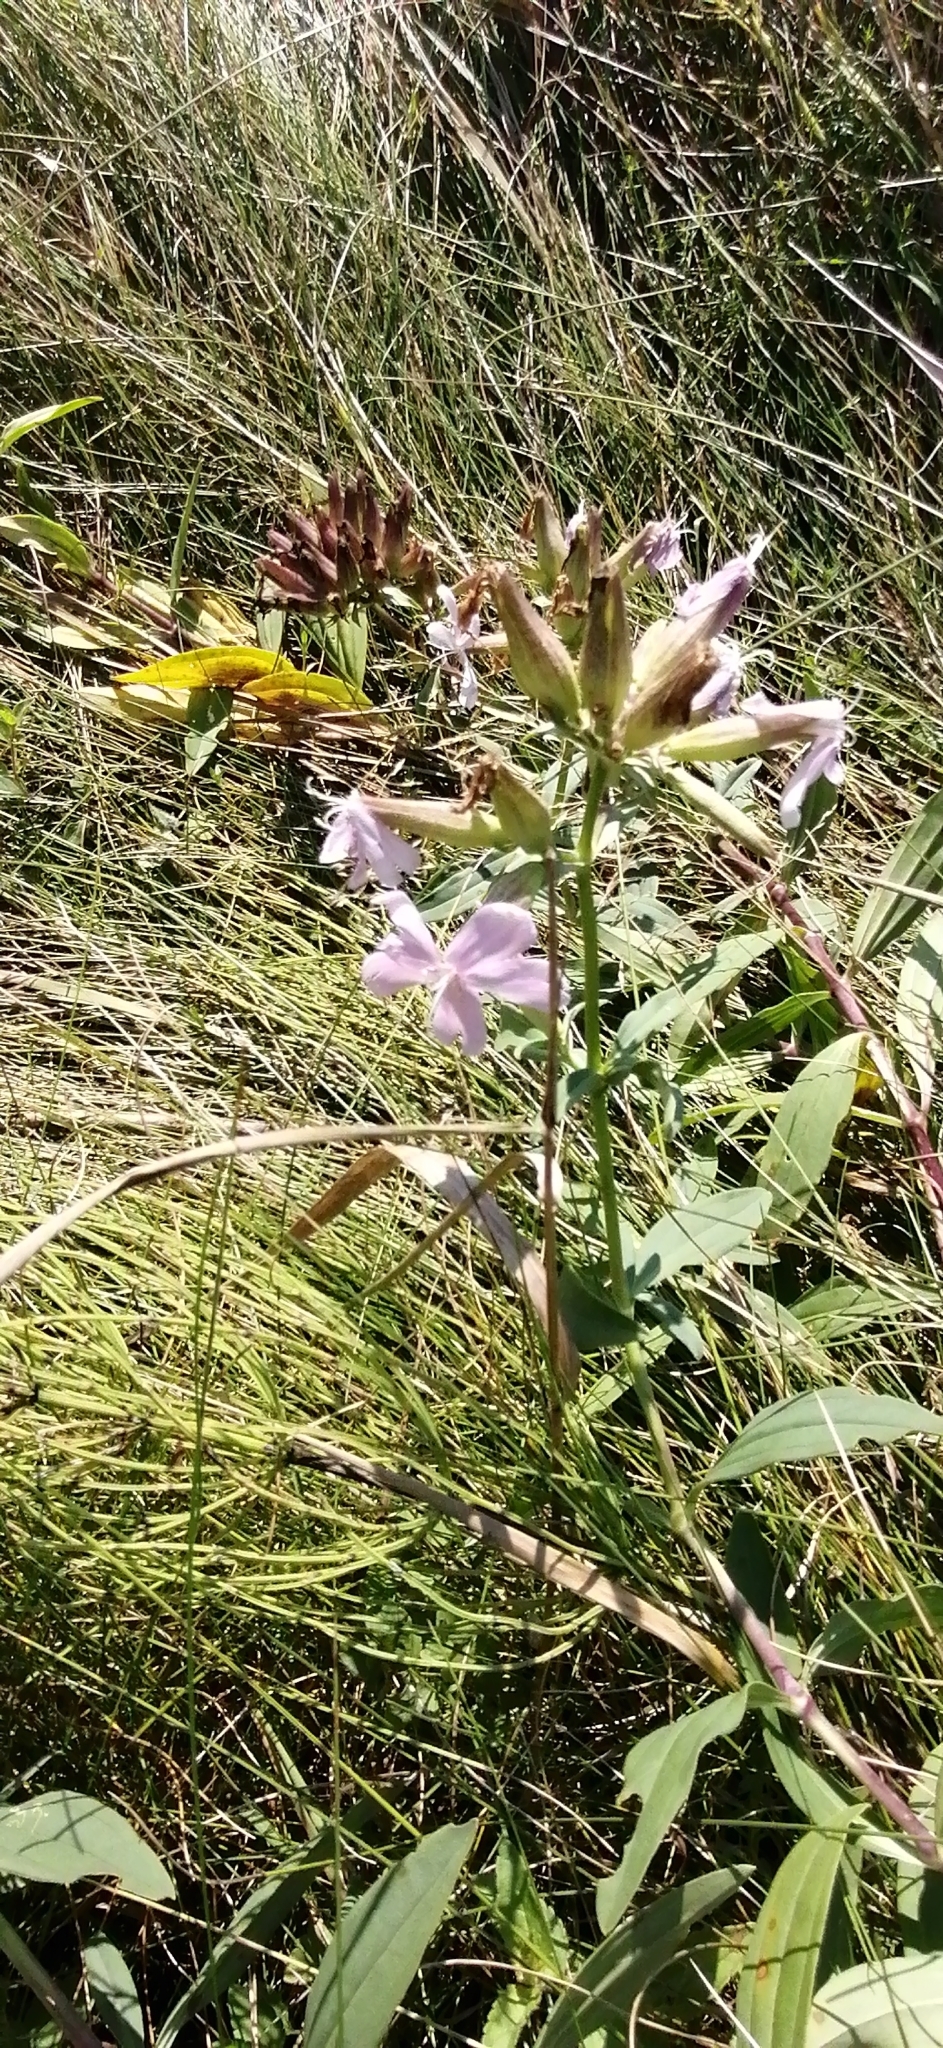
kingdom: Plantae
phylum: Tracheophyta
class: Magnoliopsida
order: Caryophyllales
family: Caryophyllaceae
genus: Saponaria
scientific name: Saponaria officinalis
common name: Soapwort
